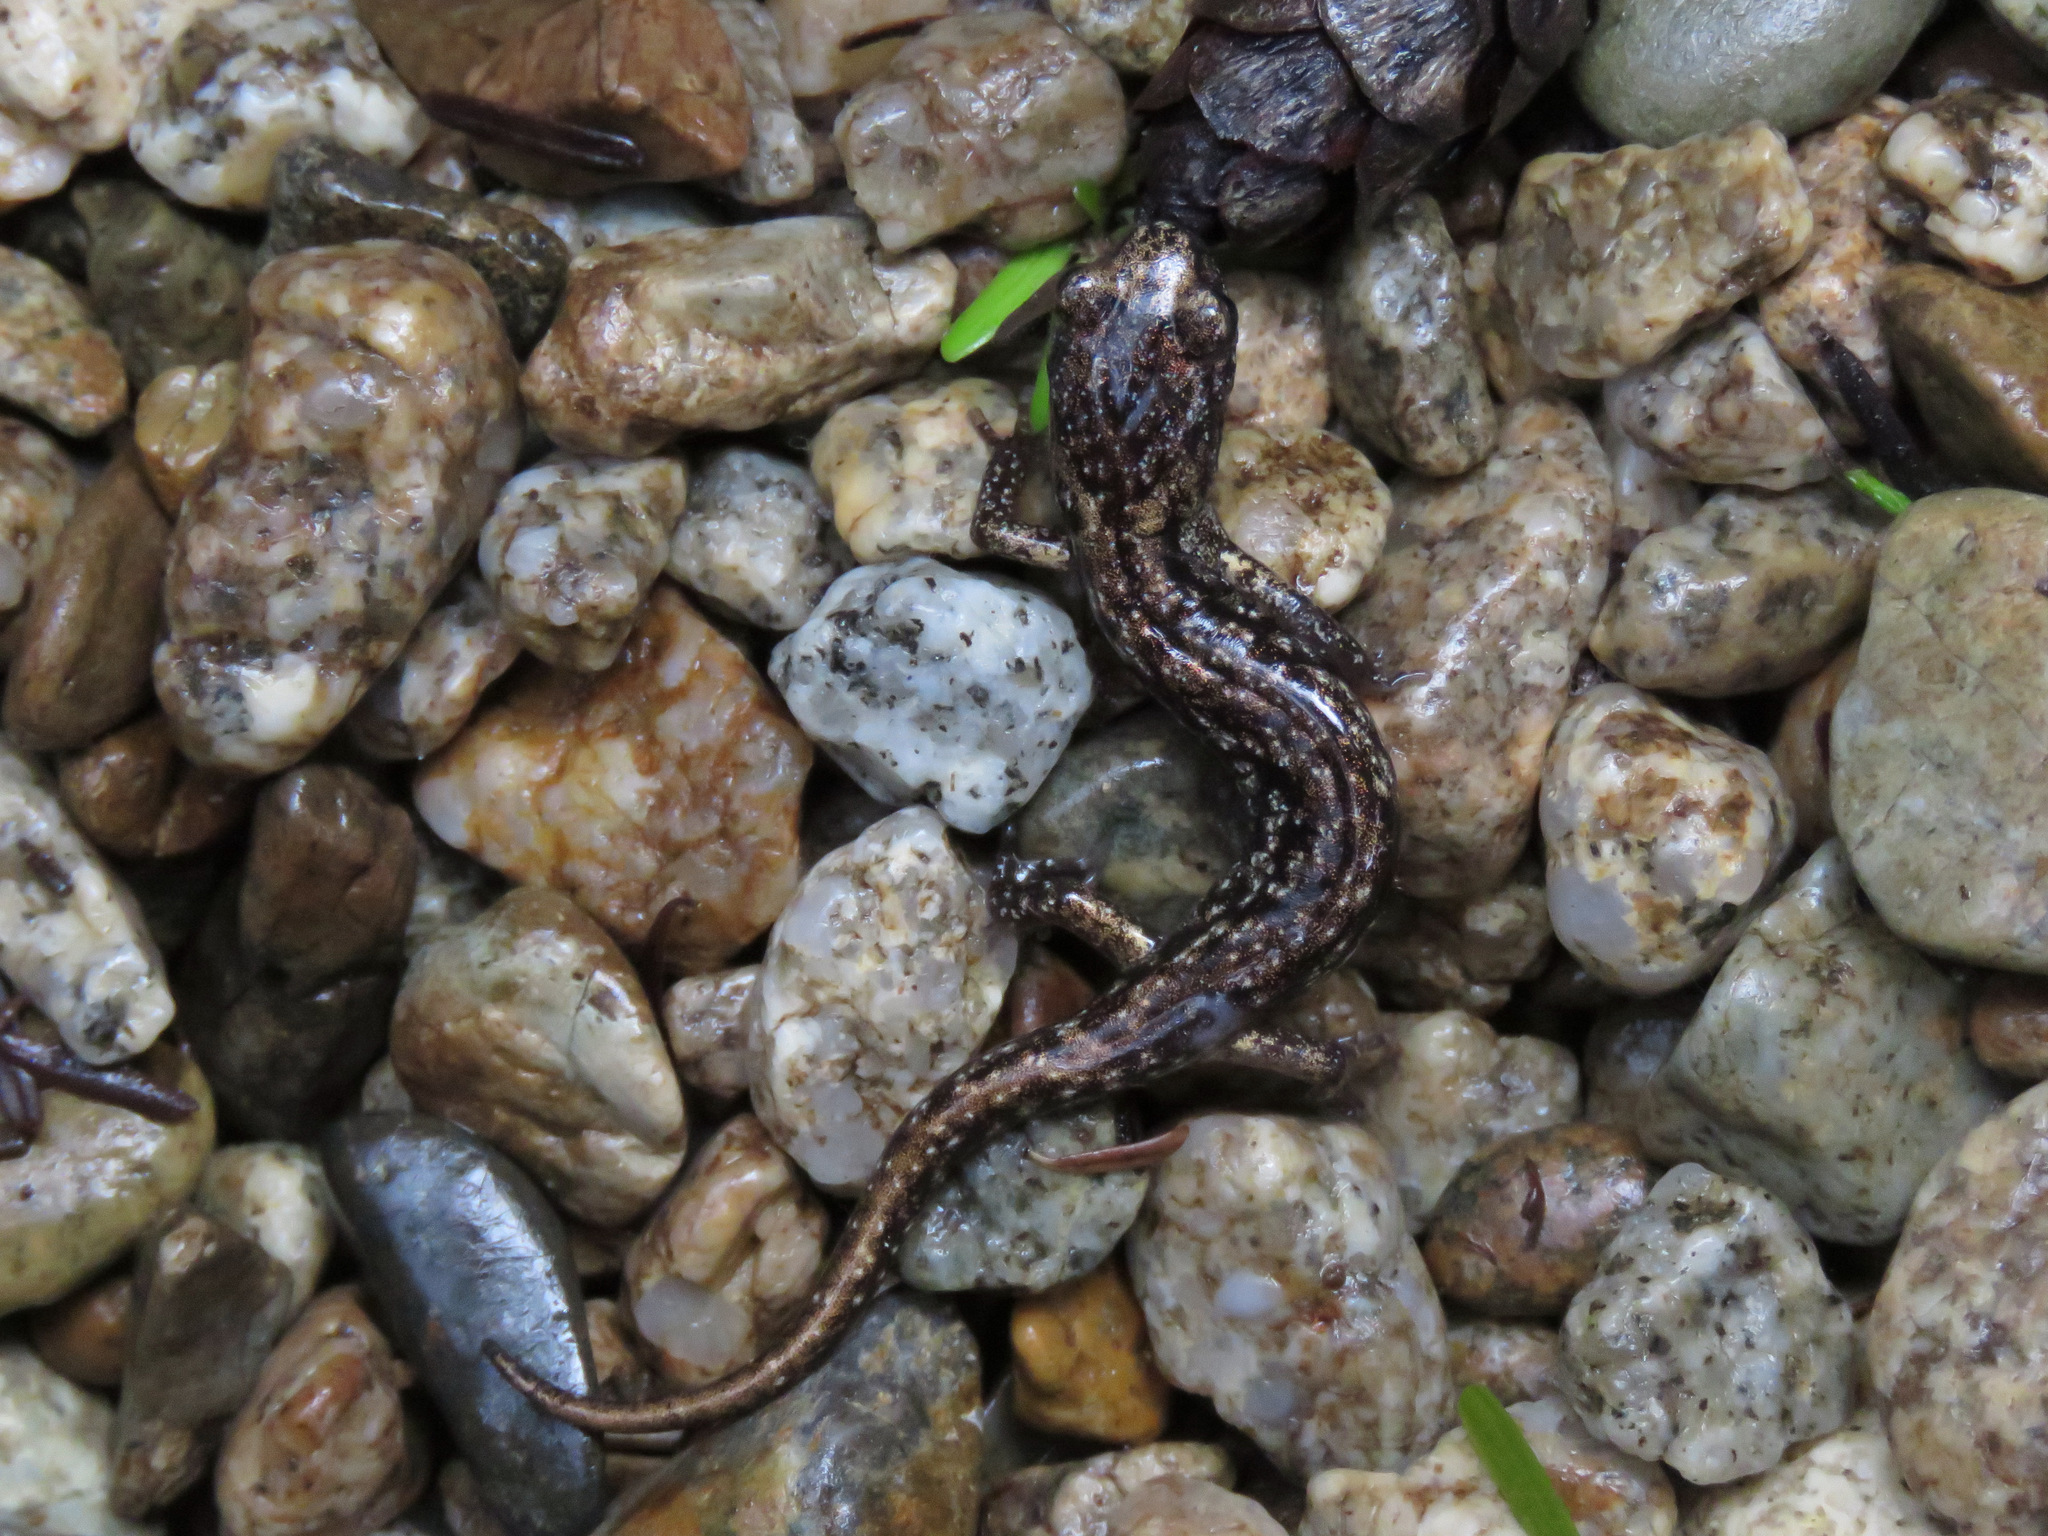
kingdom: Animalia
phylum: Chordata
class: Amphibia
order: Caudata
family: Plethodontidae
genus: Aneides
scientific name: Aneides vagrans
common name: Wandering salamander
